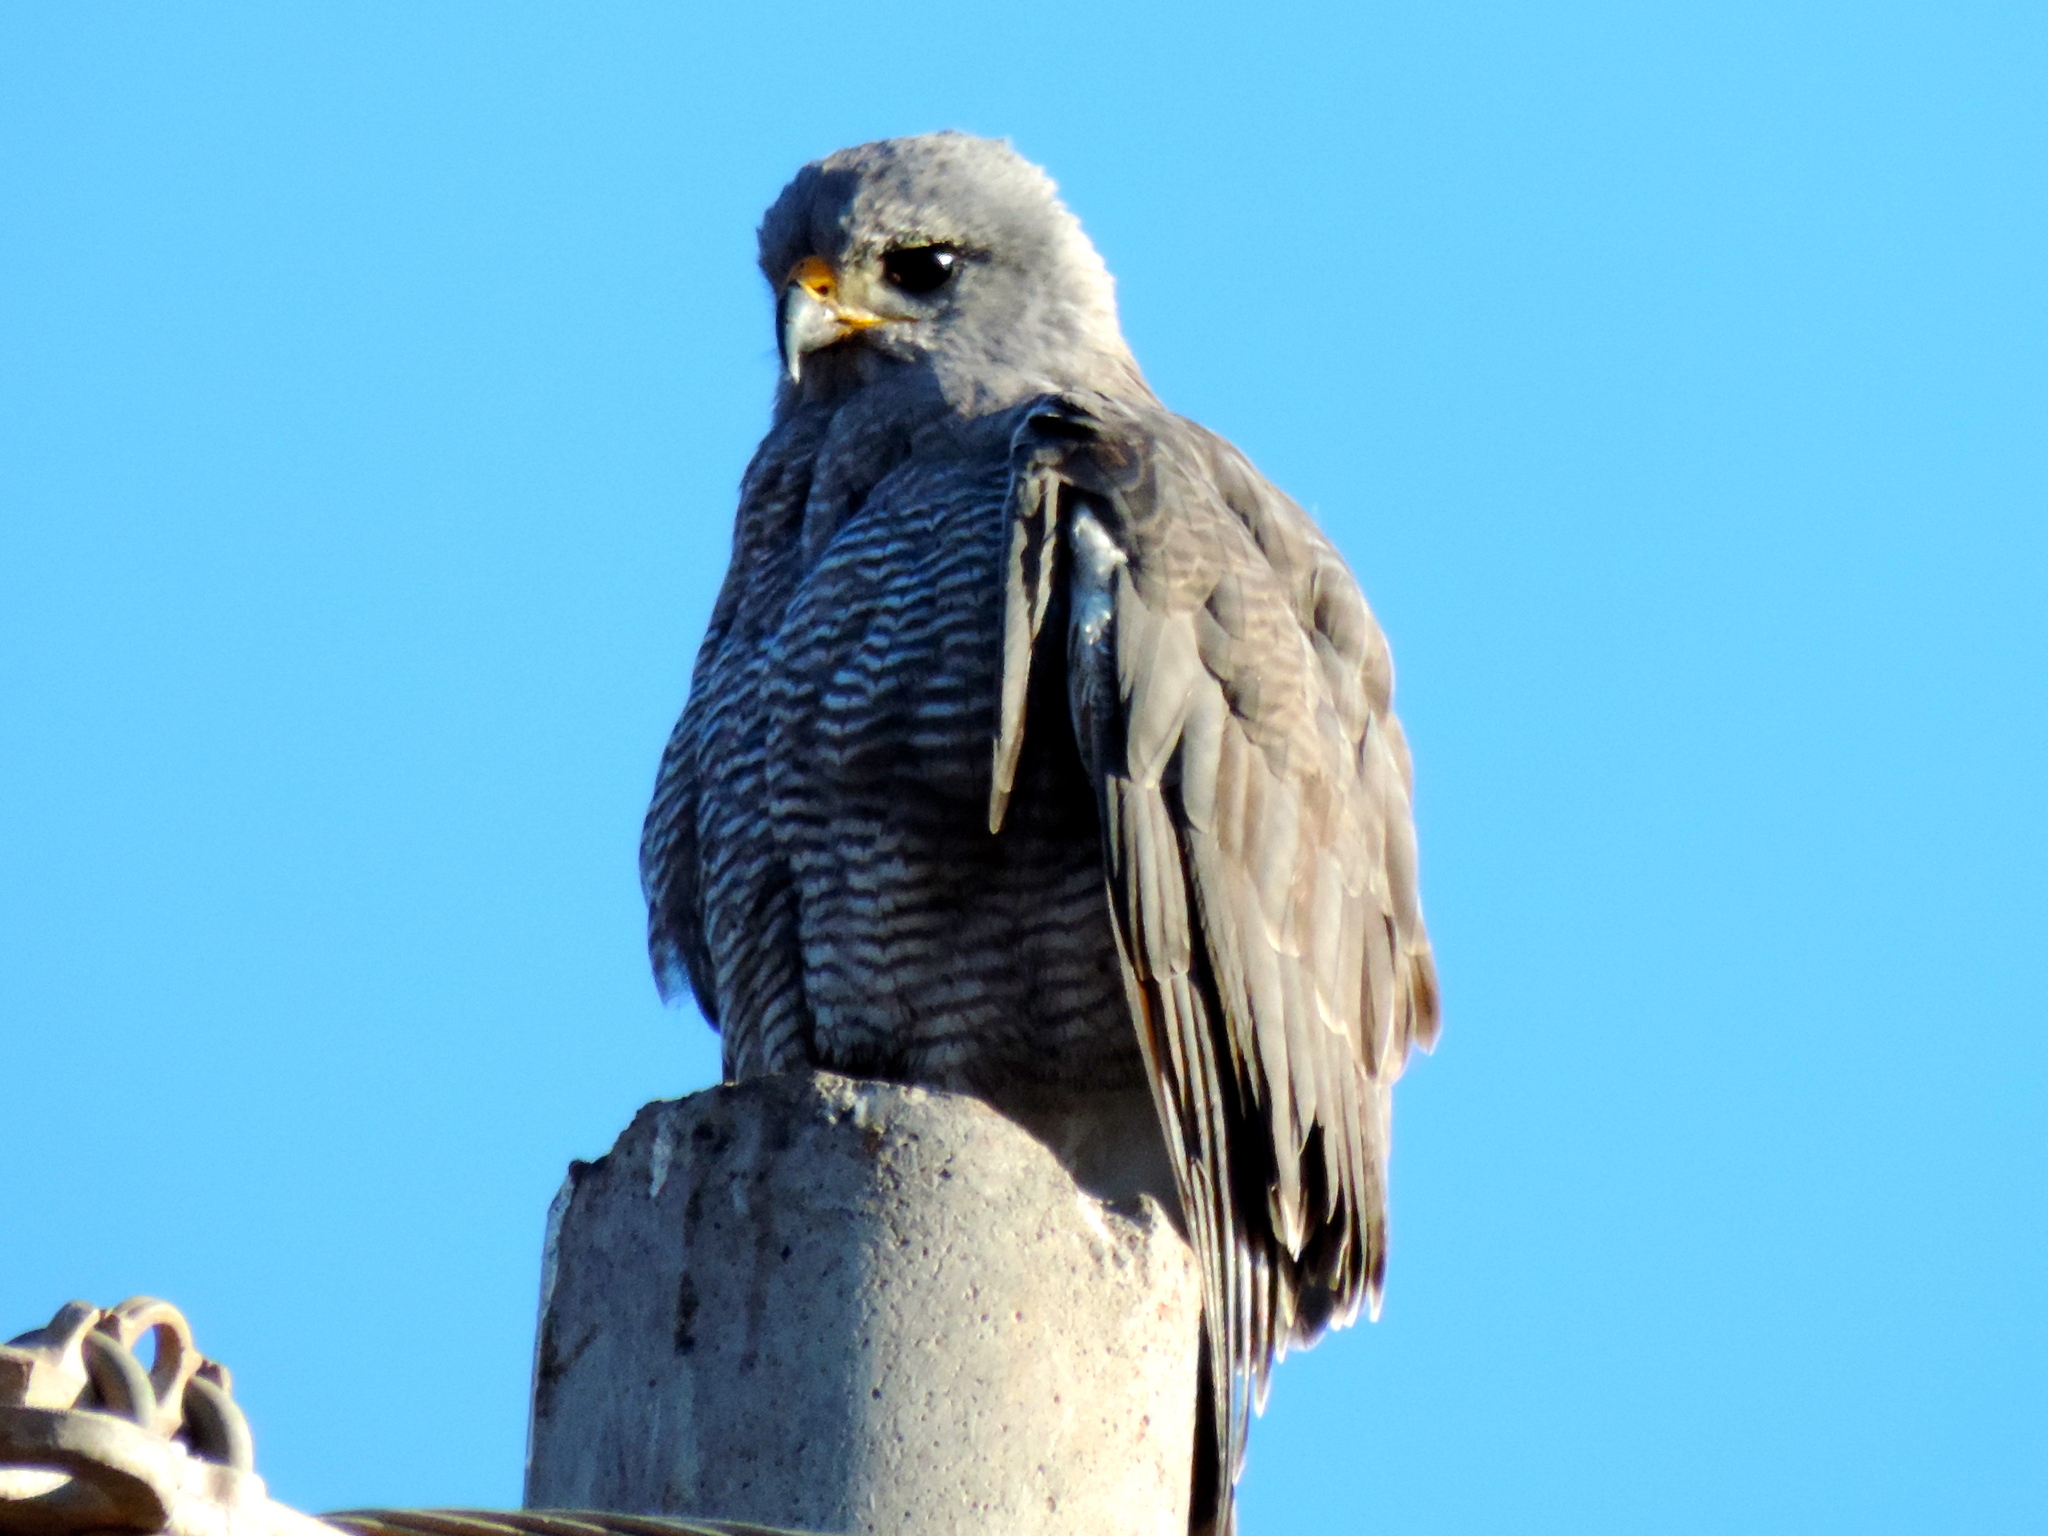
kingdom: Animalia
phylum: Chordata
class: Aves
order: Accipitriformes
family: Accipitridae
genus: Buteo
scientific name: Buteo nitidus
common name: Grey-lined hawk
